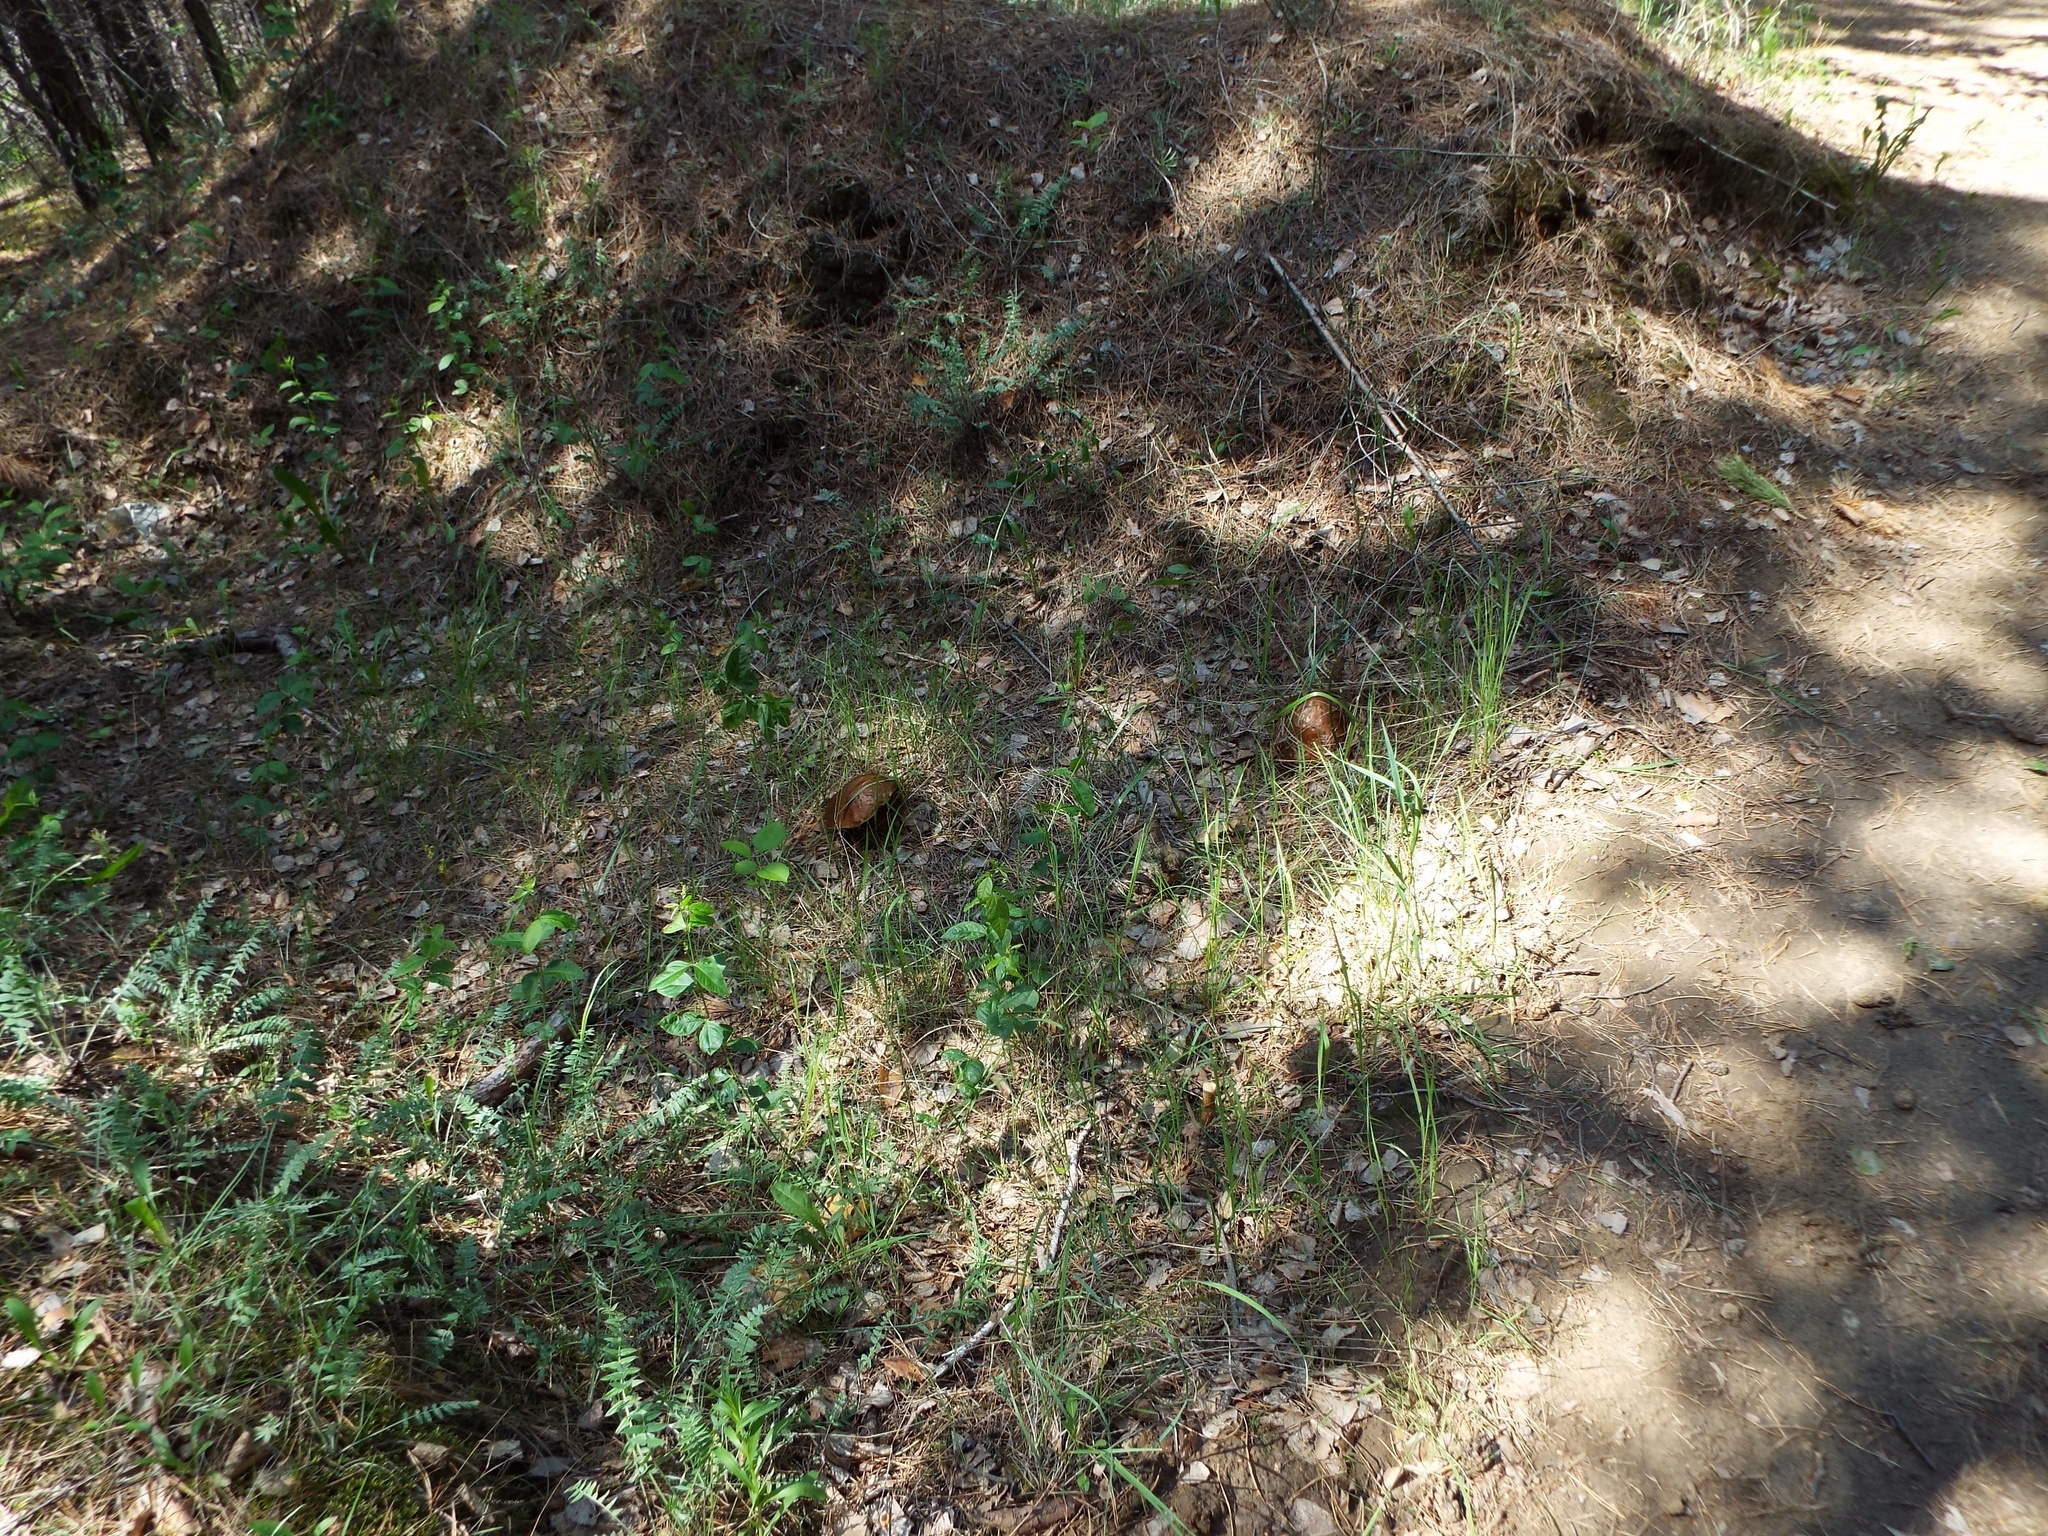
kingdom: Fungi
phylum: Basidiomycota
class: Agaricomycetes
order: Boletales
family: Boletaceae
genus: Leccinum
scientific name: Leccinum scabrum
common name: Blushing bolete
